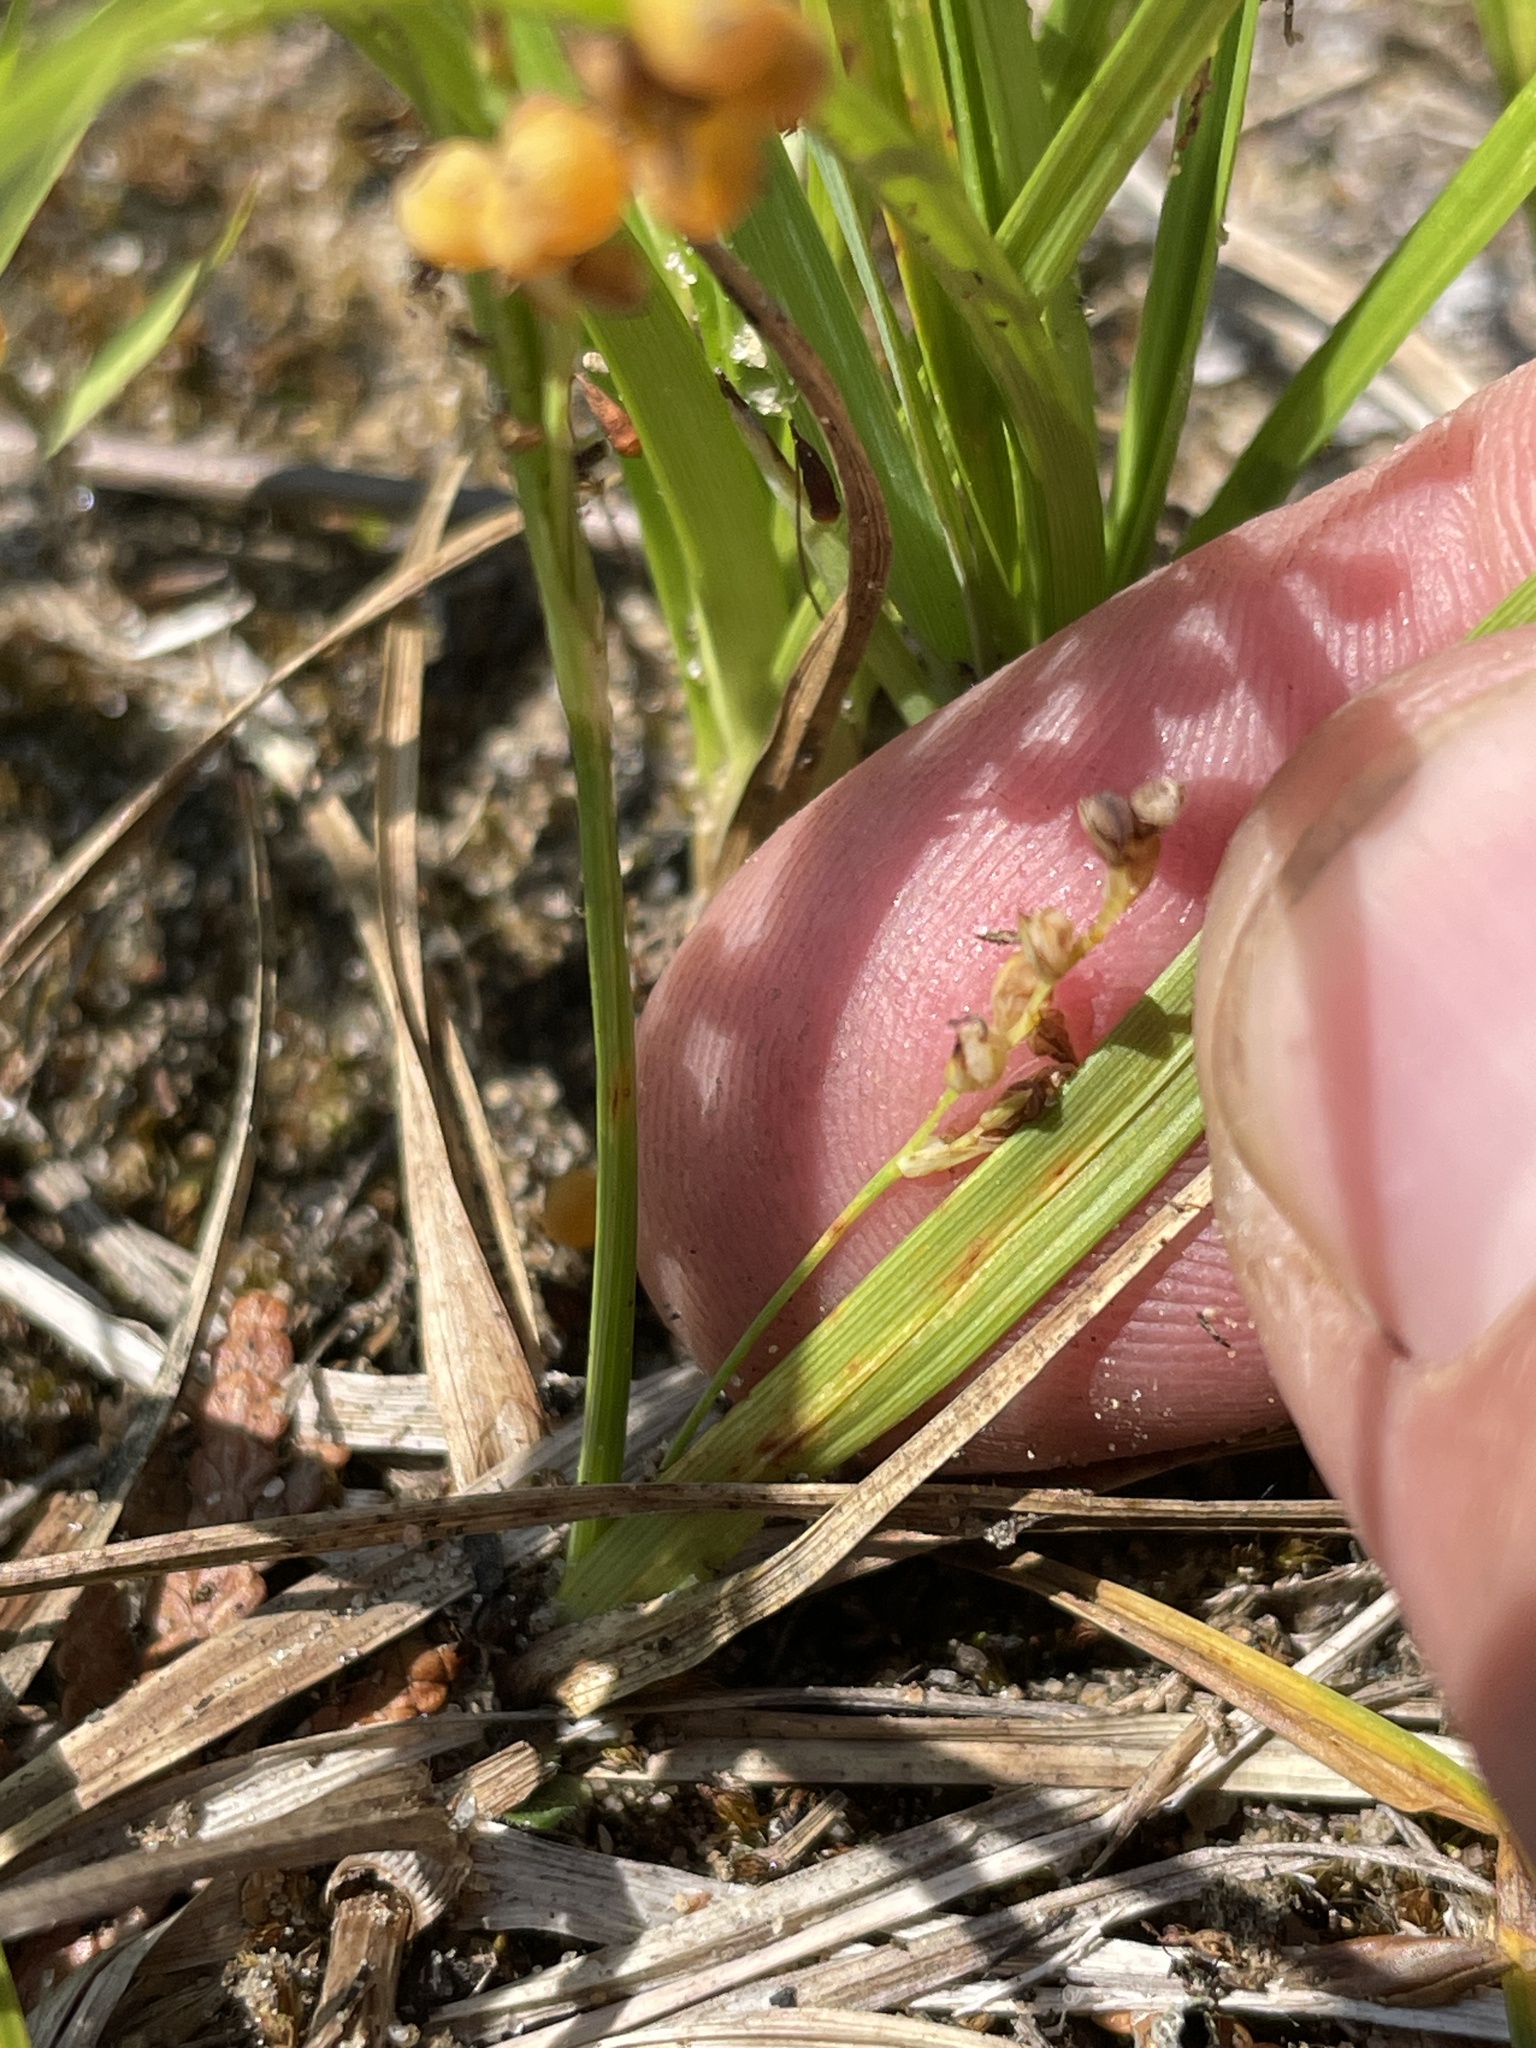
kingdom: Plantae
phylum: Tracheophyta
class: Liliopsida
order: Poales
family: Cyperaceae
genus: Carex
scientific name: Carex aurea
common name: Golden sedge
